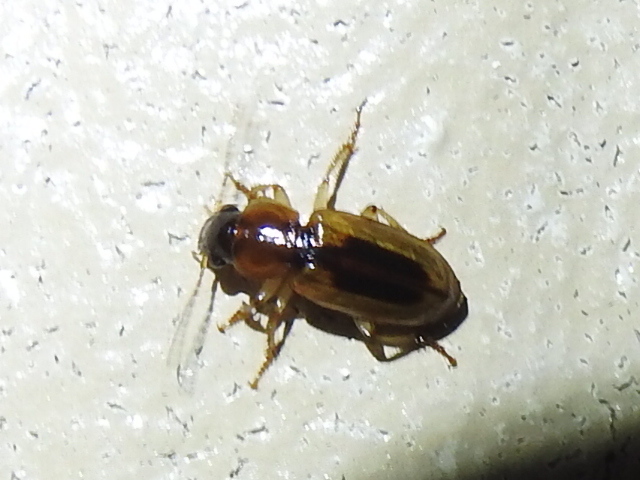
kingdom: Animalia
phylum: Arthropoda
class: Insecta
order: Coleoptera
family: Carabidae
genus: Stenolophus
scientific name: Stenolophus lecontei
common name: Leconte's seedcorn beetle
